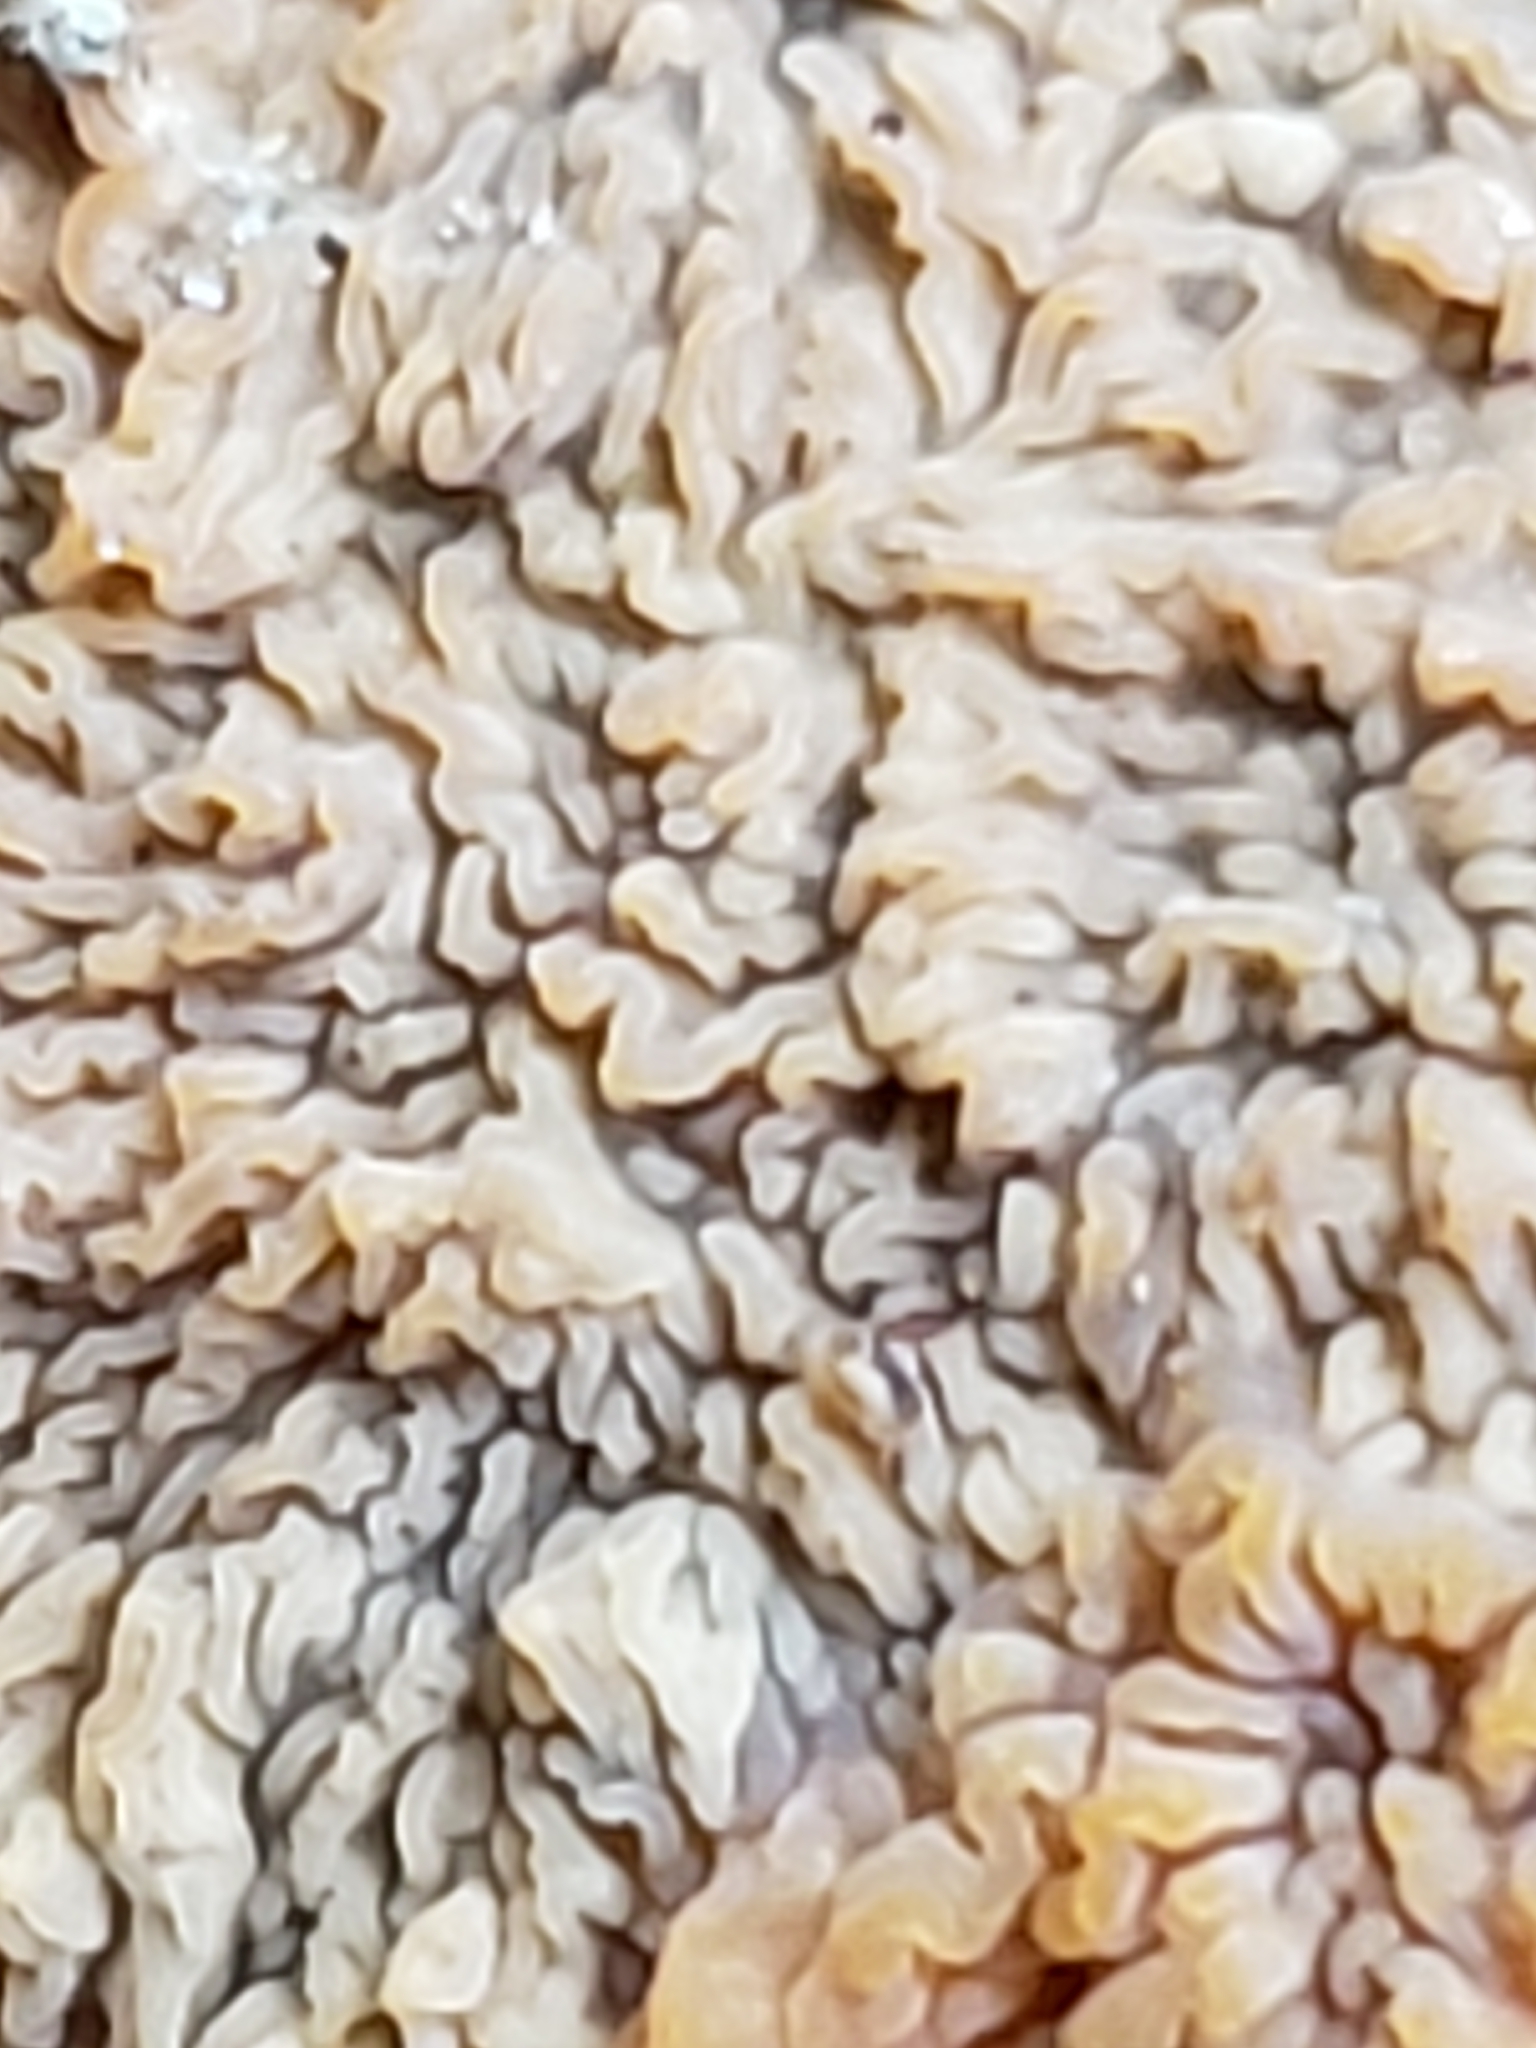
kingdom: Fungi
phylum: Basidiomycota
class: Agaricomycetes
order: Polyporales
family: Meruliaceae
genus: Phlebia
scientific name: Phlebia radiata
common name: Wrinkled crust
